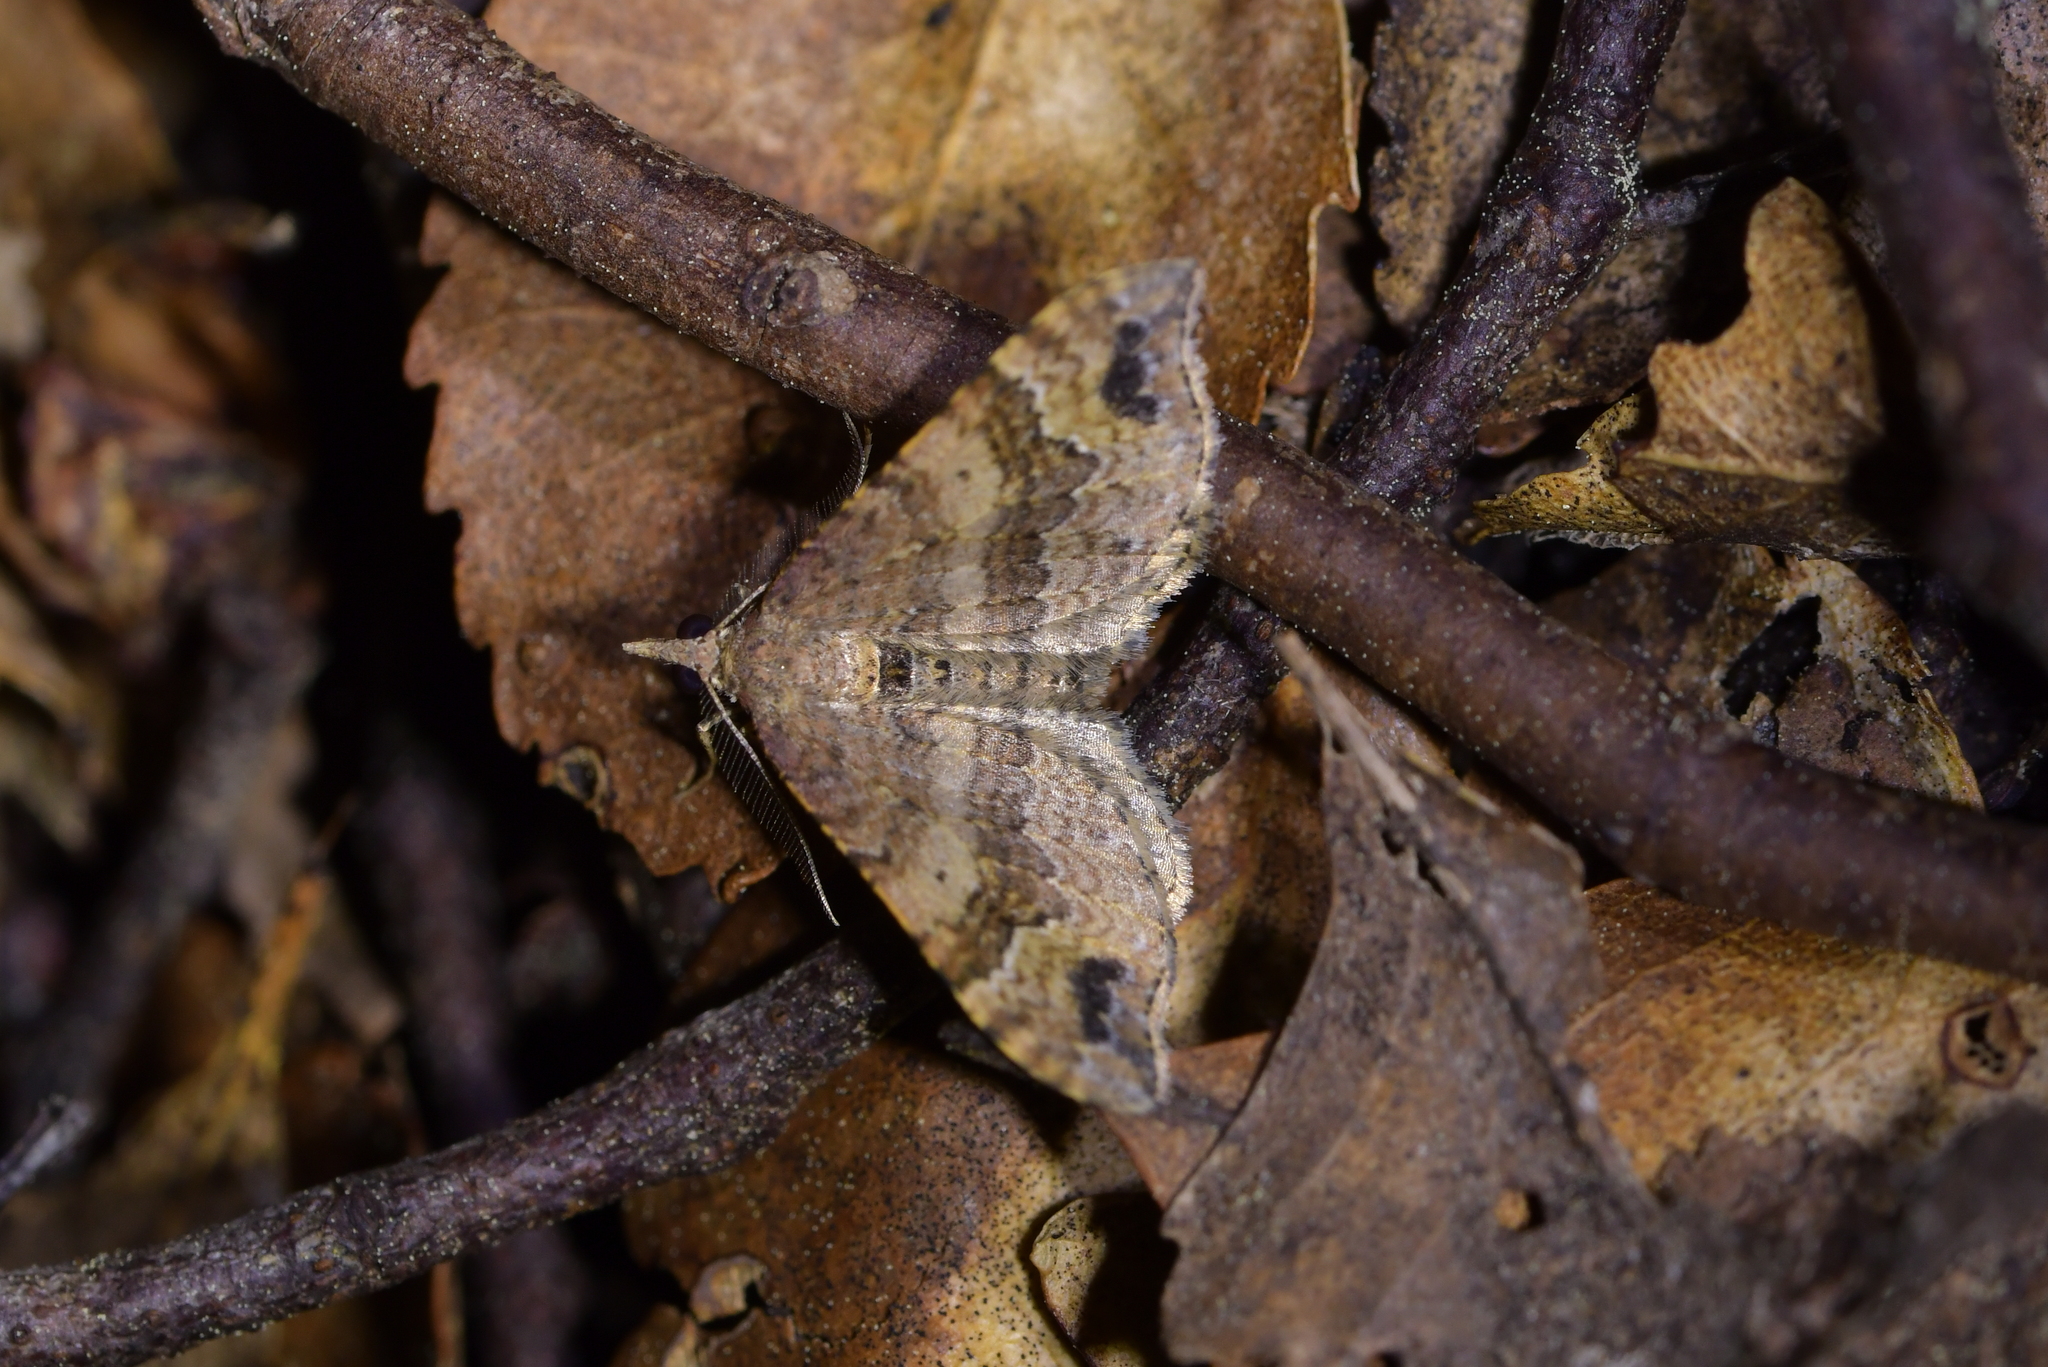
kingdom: Animalia
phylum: Arthropoda
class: Insecta
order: Lepidoptera
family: Geometridae
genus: Homodotis
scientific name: Homodotis megaspilata
